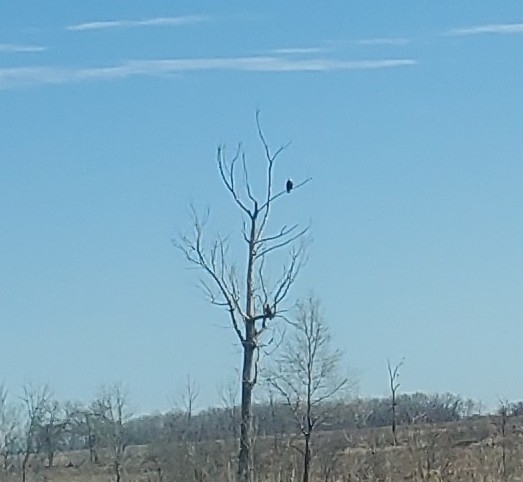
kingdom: Animalia
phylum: Chordata
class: Aves
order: Accipitriformes
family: Accipitridae
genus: Haliaeetus
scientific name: Haliaeetus leucocephalus
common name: Bald eagle
